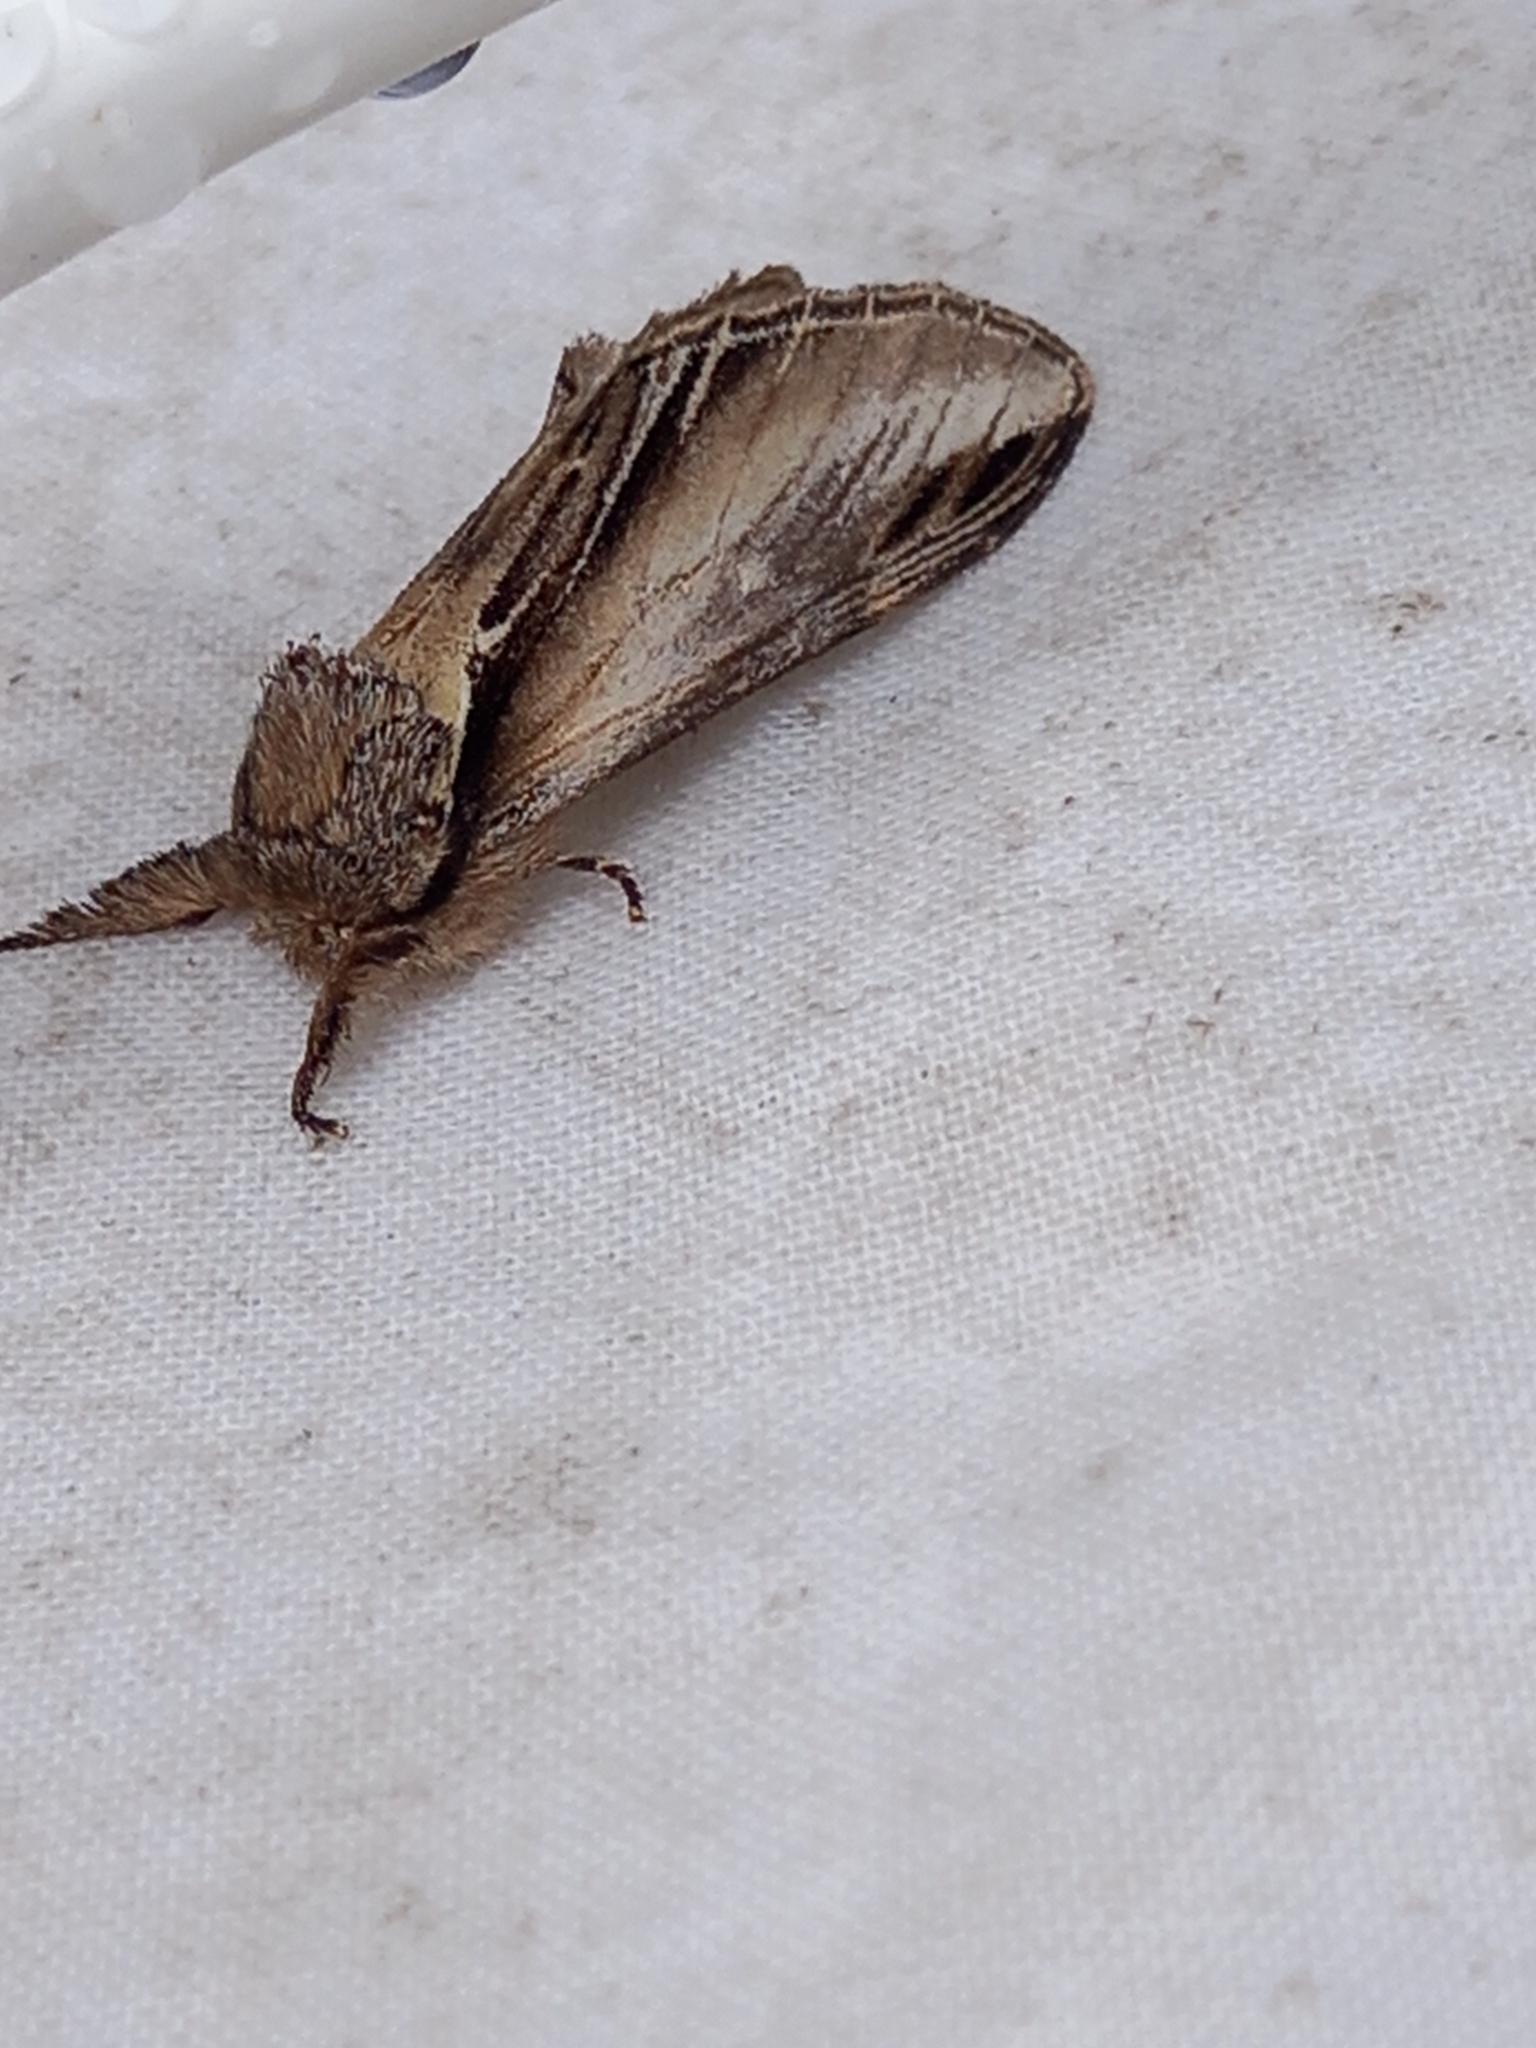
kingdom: Animalia
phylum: Arthropoda
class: Insecta
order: Lepidoptera
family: Notodontidae
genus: Pheosia
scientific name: Pheosia tremula
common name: Swallow prominent
